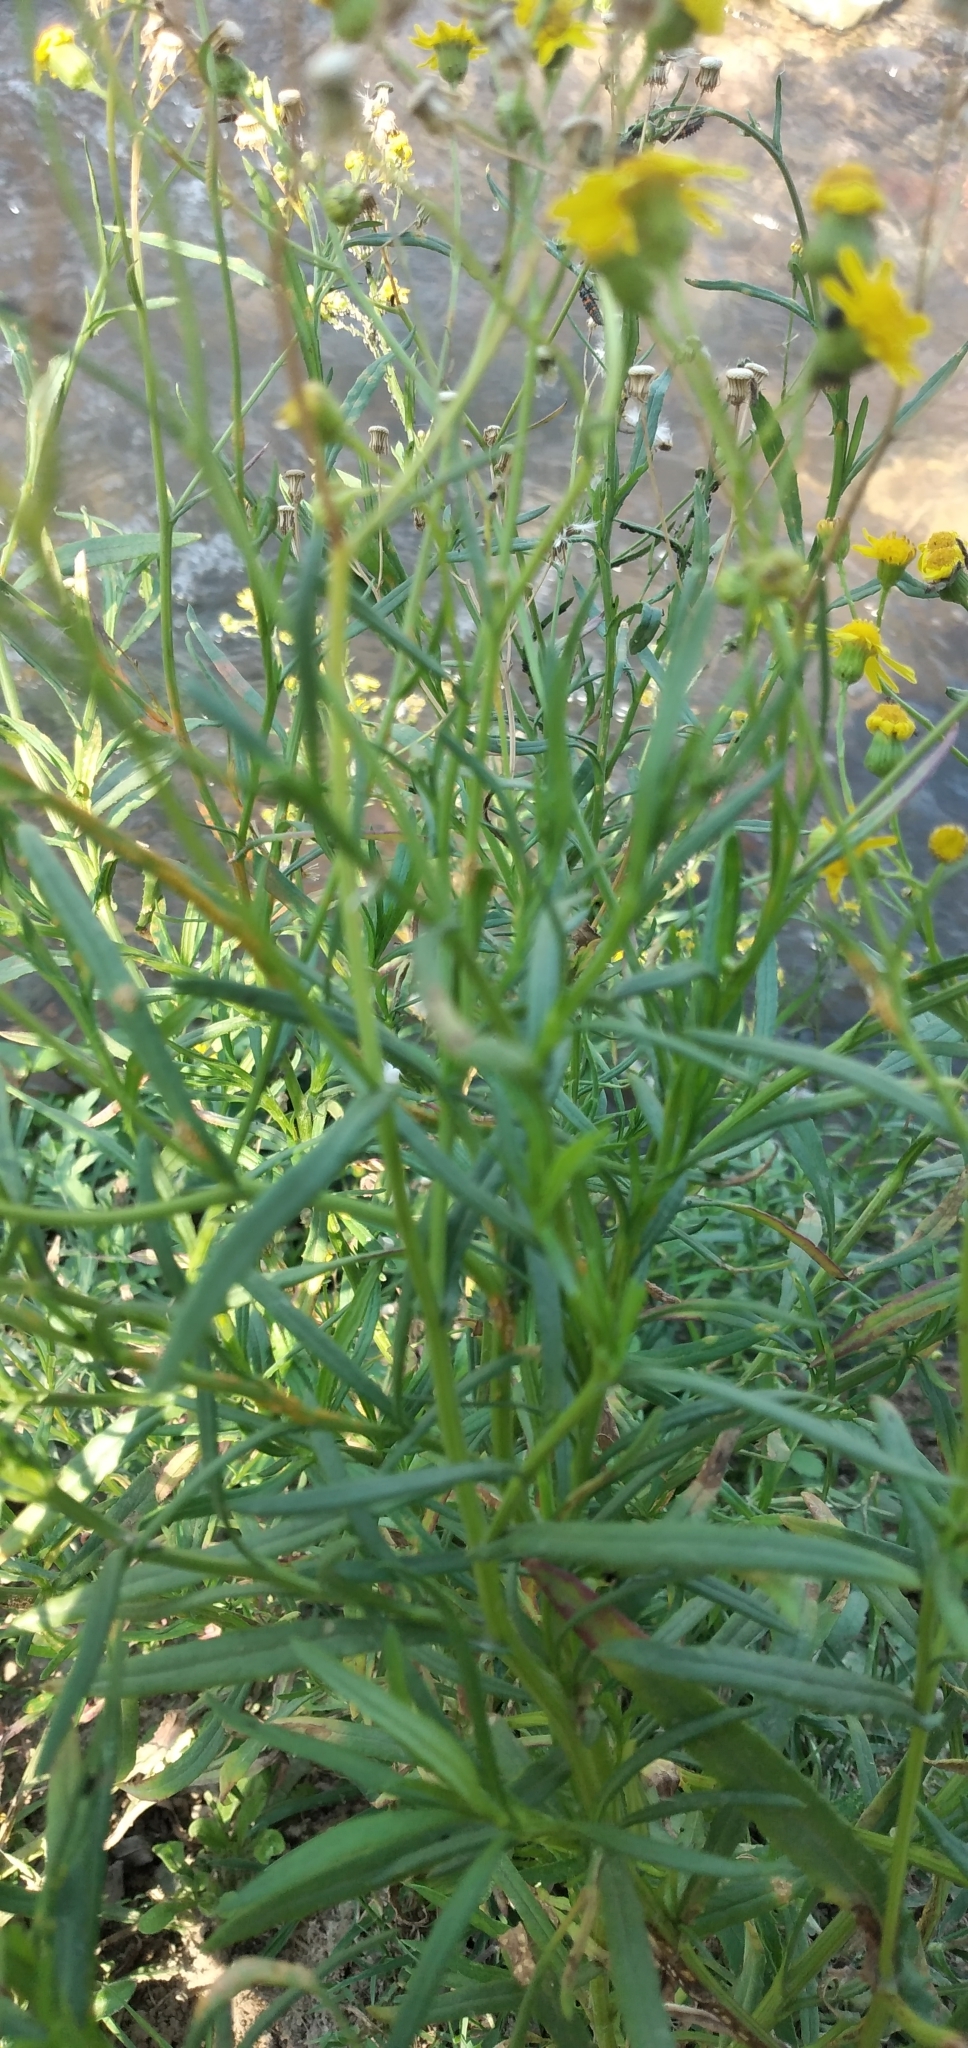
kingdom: Plantae
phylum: Tracheophyta
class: Magnoliopsida
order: Asterales
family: Asteraceae
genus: Senecio
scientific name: Senecio madagascariensis
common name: Madagascar ragwort
